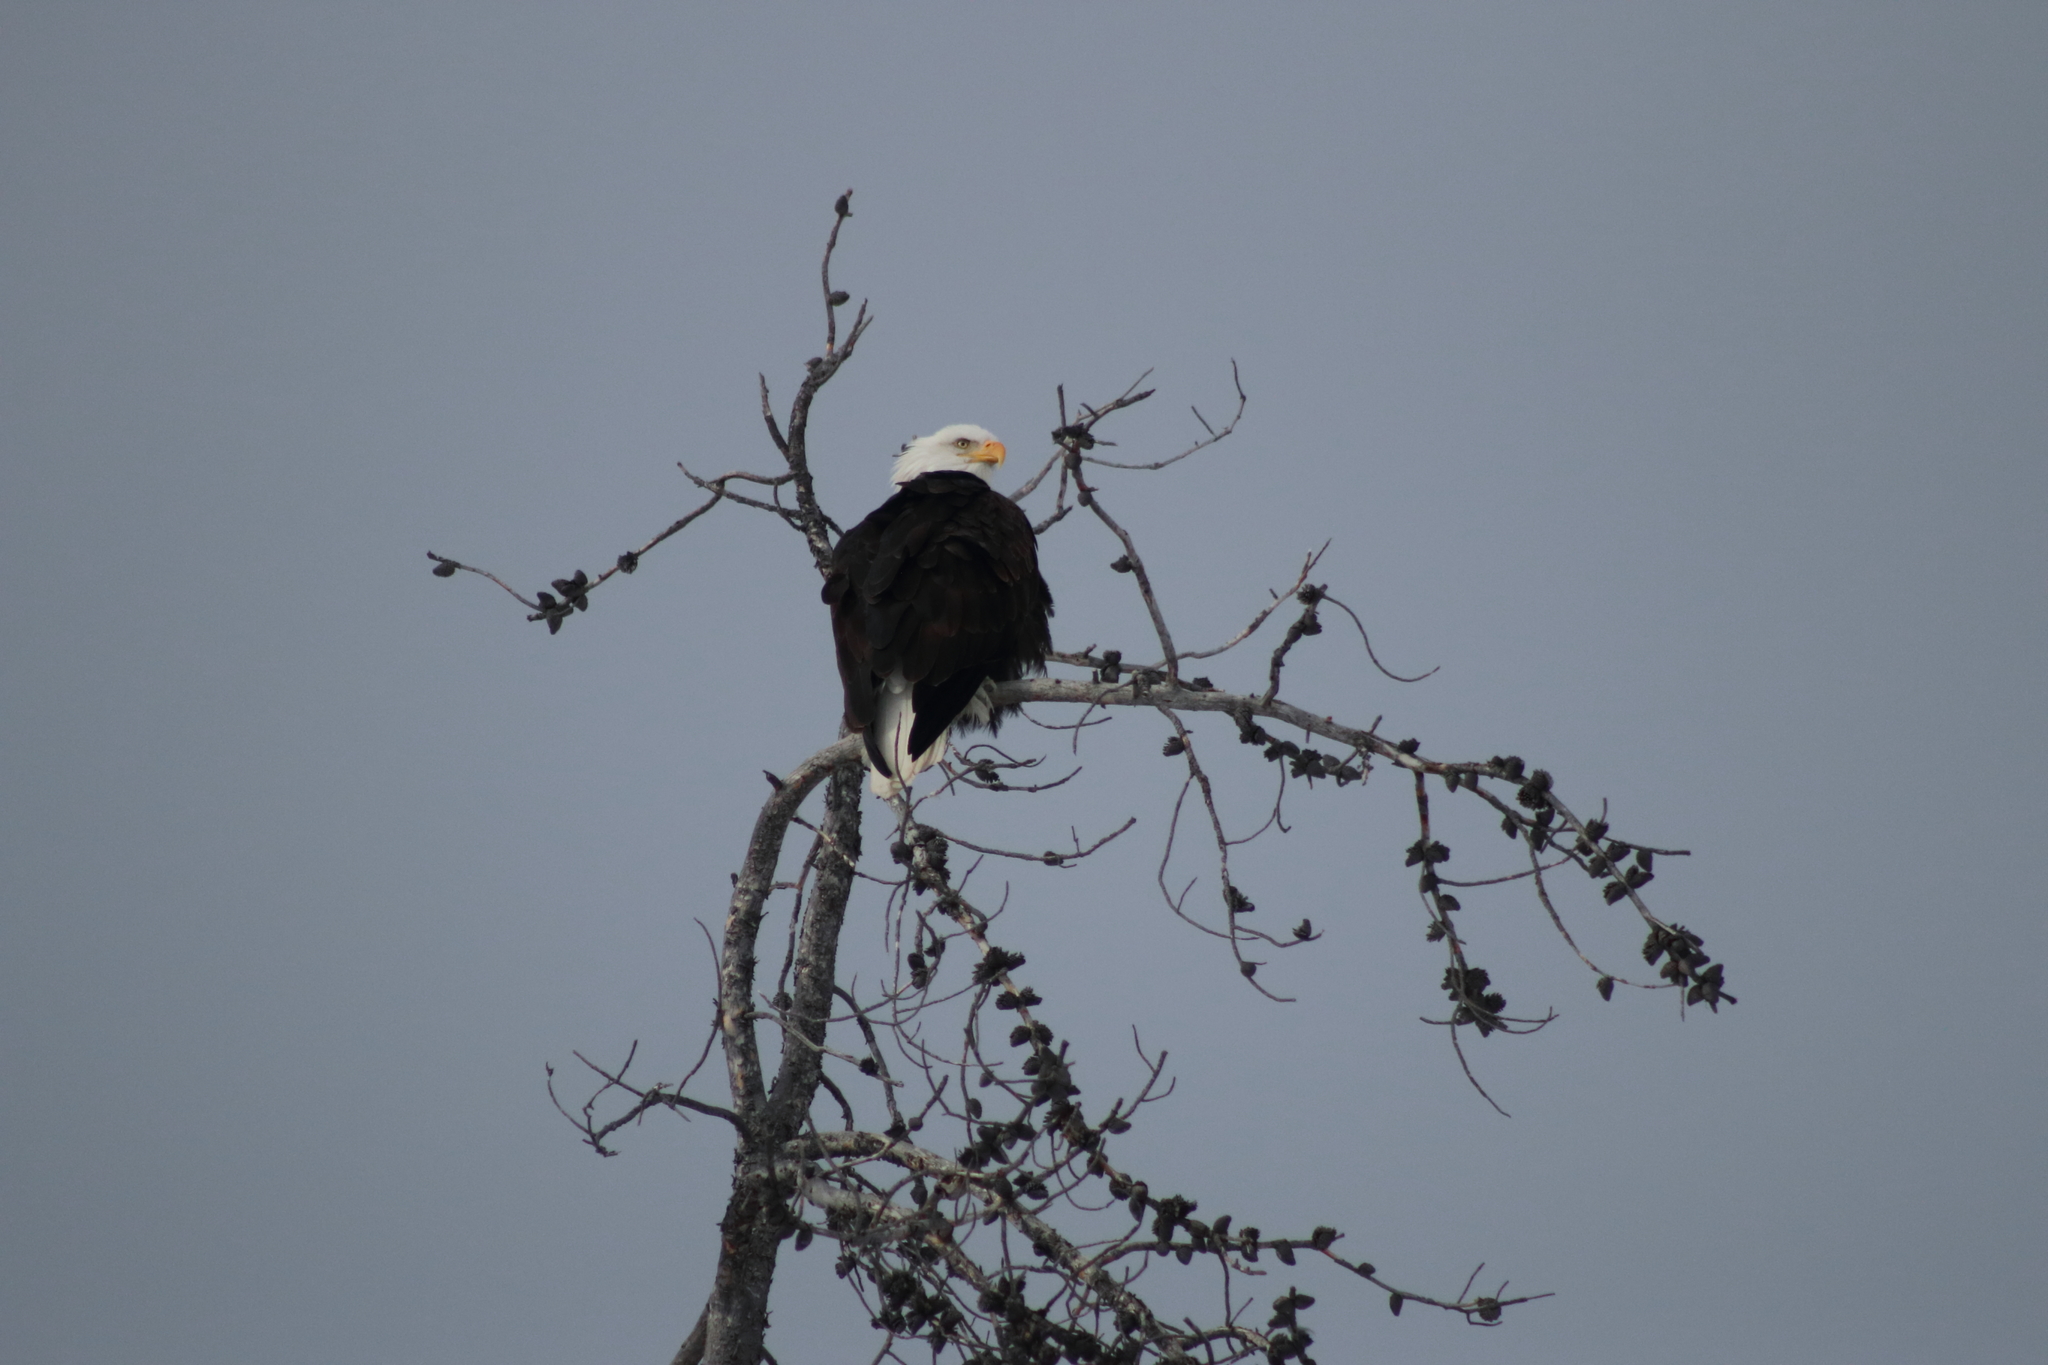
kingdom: Animalia
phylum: Chordata
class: Aves
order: Accipitriformes
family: Accipitridae
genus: Haliaeetus
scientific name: Haliaeetus leucocephalus
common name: Bald eagle
